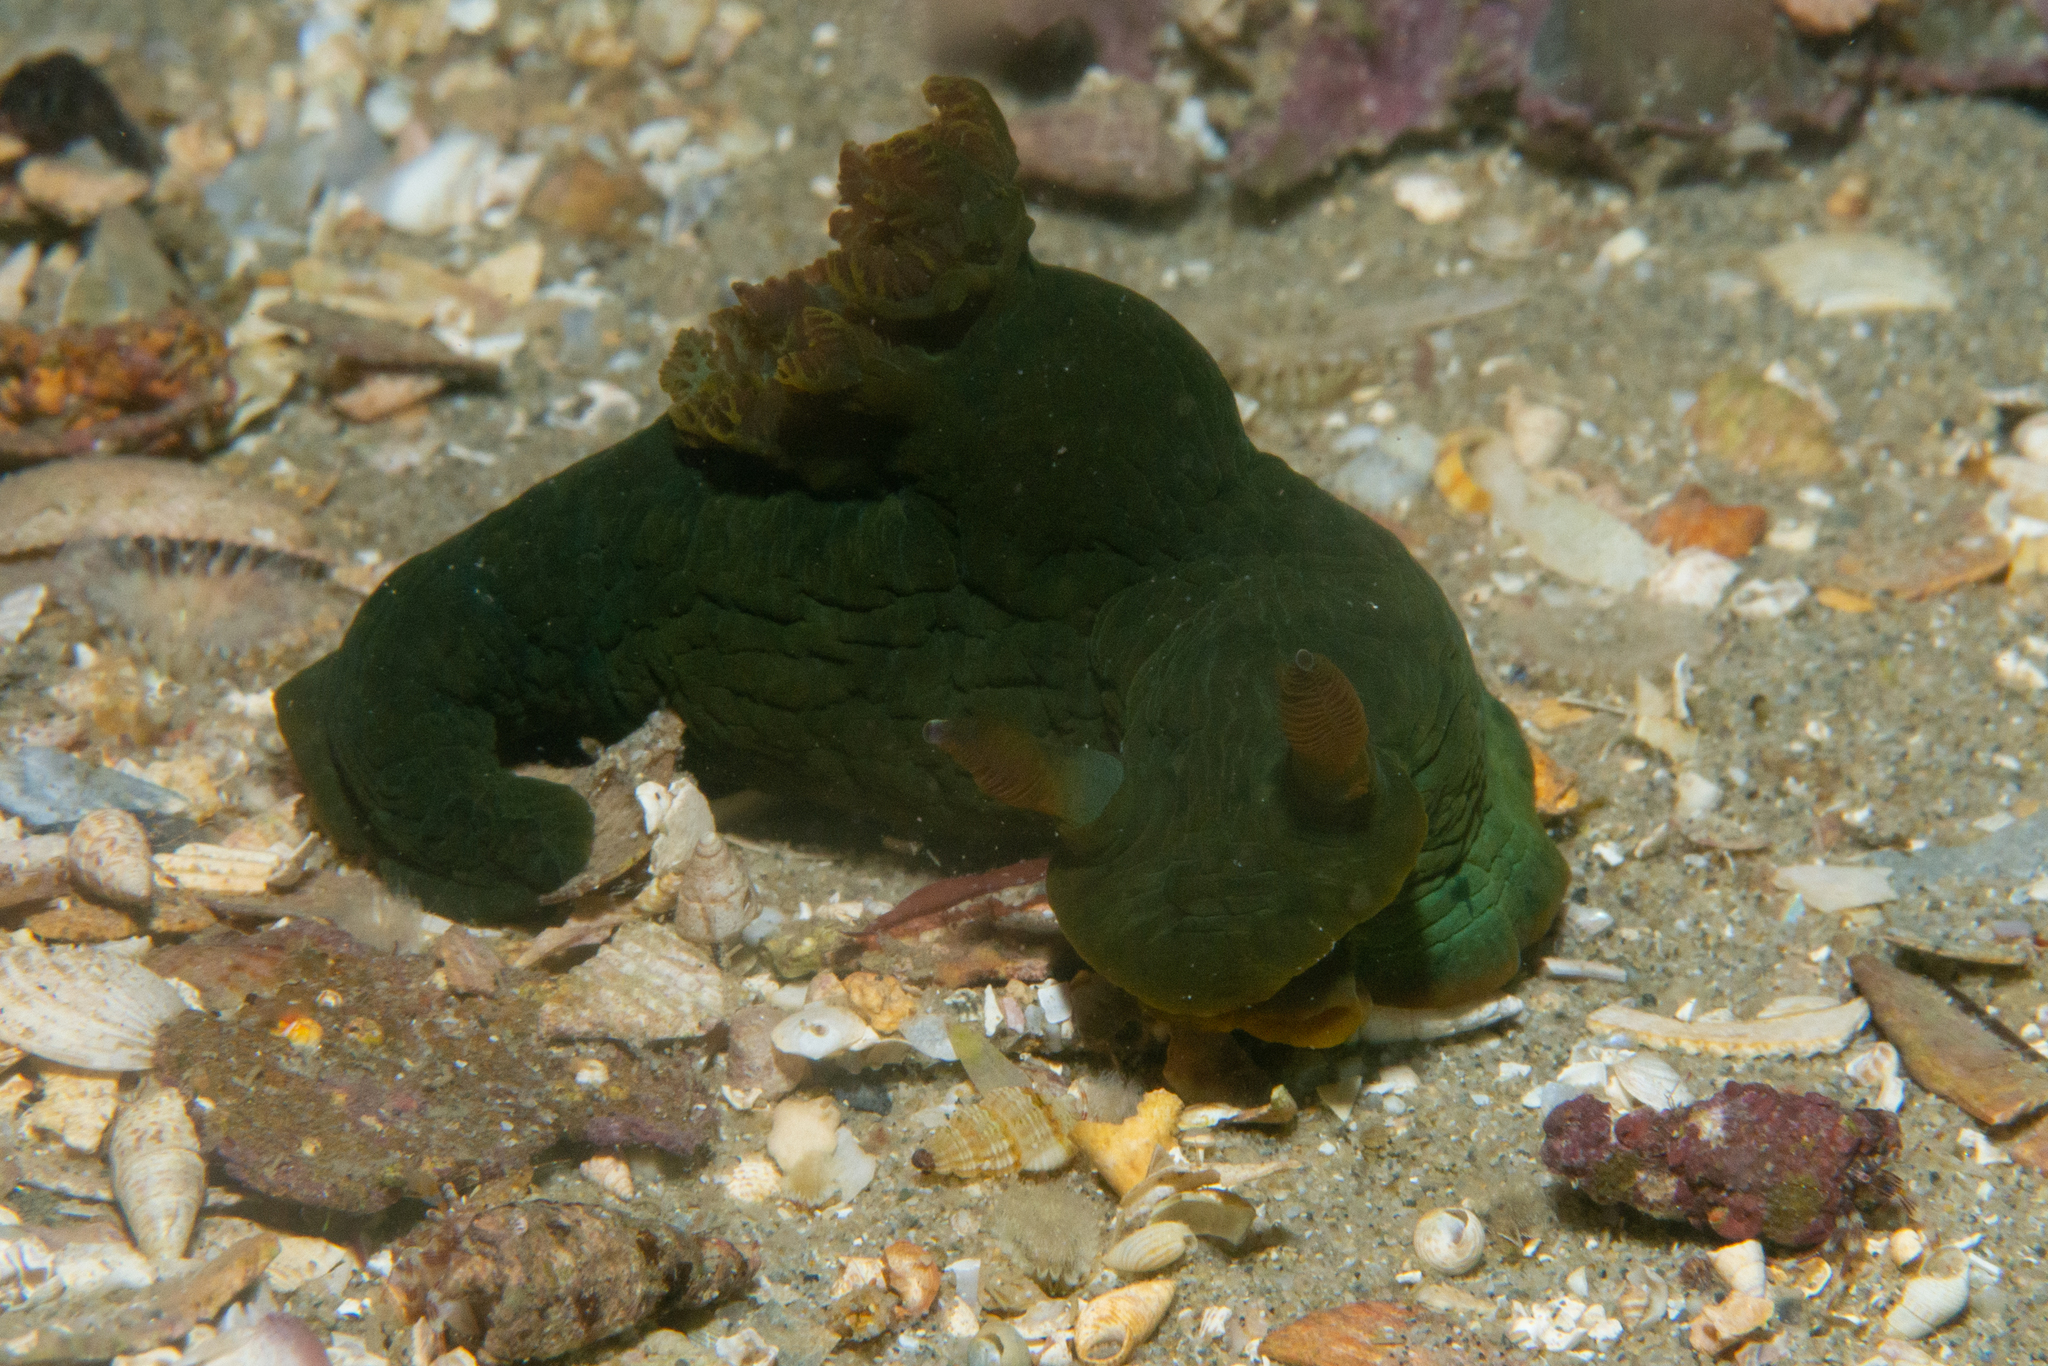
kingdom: Animalia
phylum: Mollusca
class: Gastropoda
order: Nudibranchia
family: Polyceridae
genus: Tambja
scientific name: Tambja dracomus
